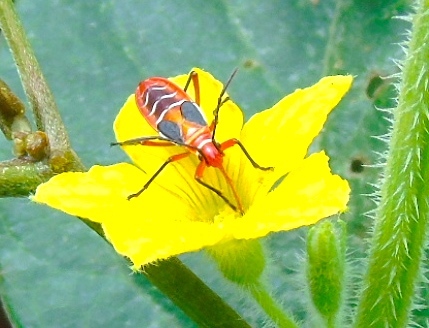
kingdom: Animalia
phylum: Arthropoda
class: Insecta
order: Hemiptera
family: Pyrrhocoridae
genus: Dysdercus
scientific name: Dysdercus
